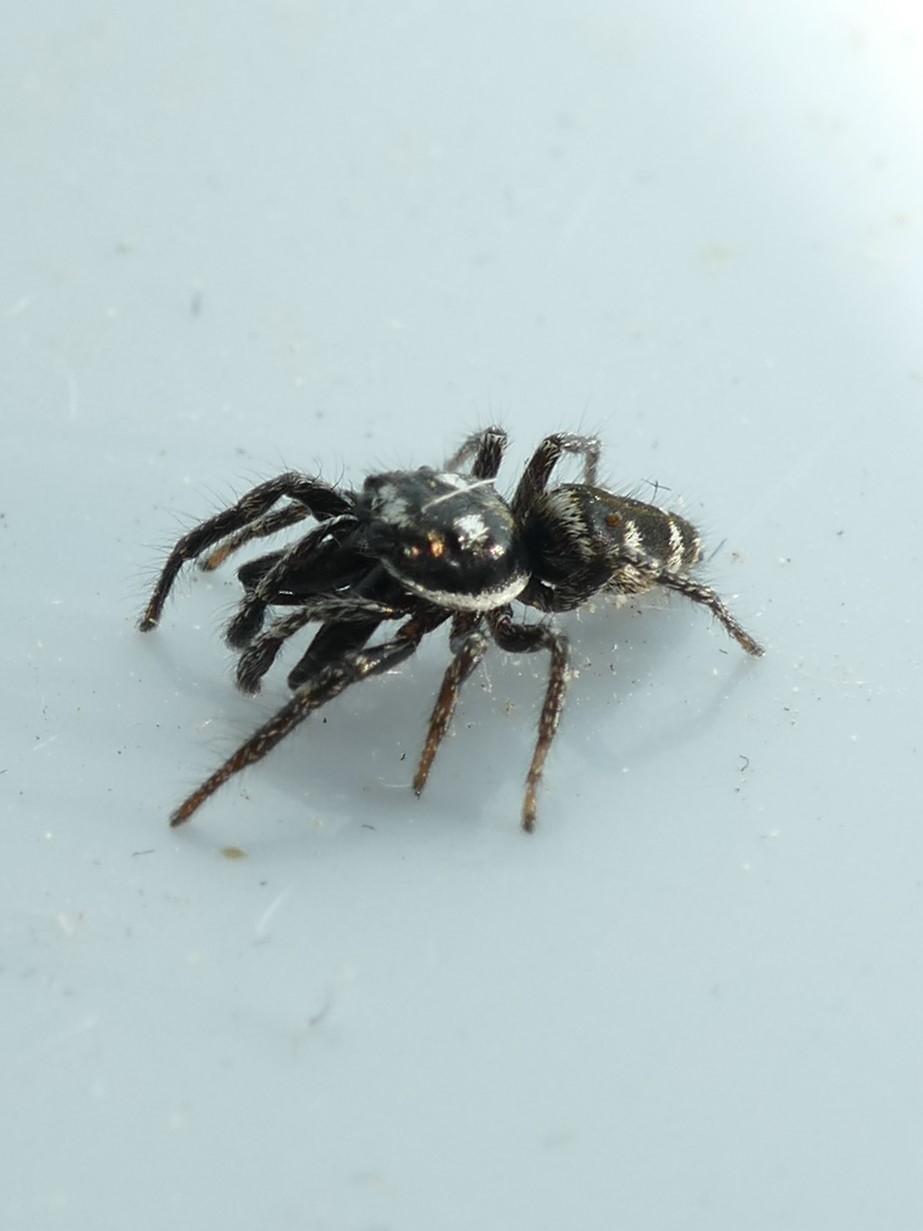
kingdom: Animalia
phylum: Arthropoda
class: Arachnida
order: Araneae
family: Salticidae
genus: Salticus
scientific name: Salticus propinquus
